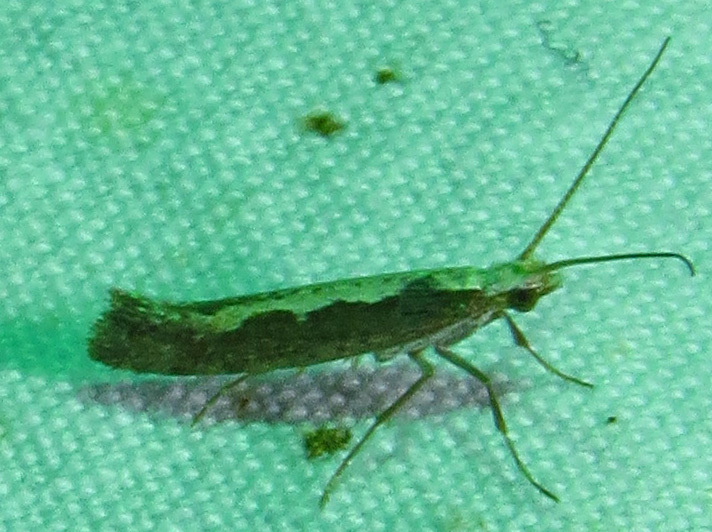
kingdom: Animalia
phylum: Arthropoda
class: Insecta
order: Lepidoptera
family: Plutellidae
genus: Plutella
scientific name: Plutella xylostella
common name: Diamond-back moth
